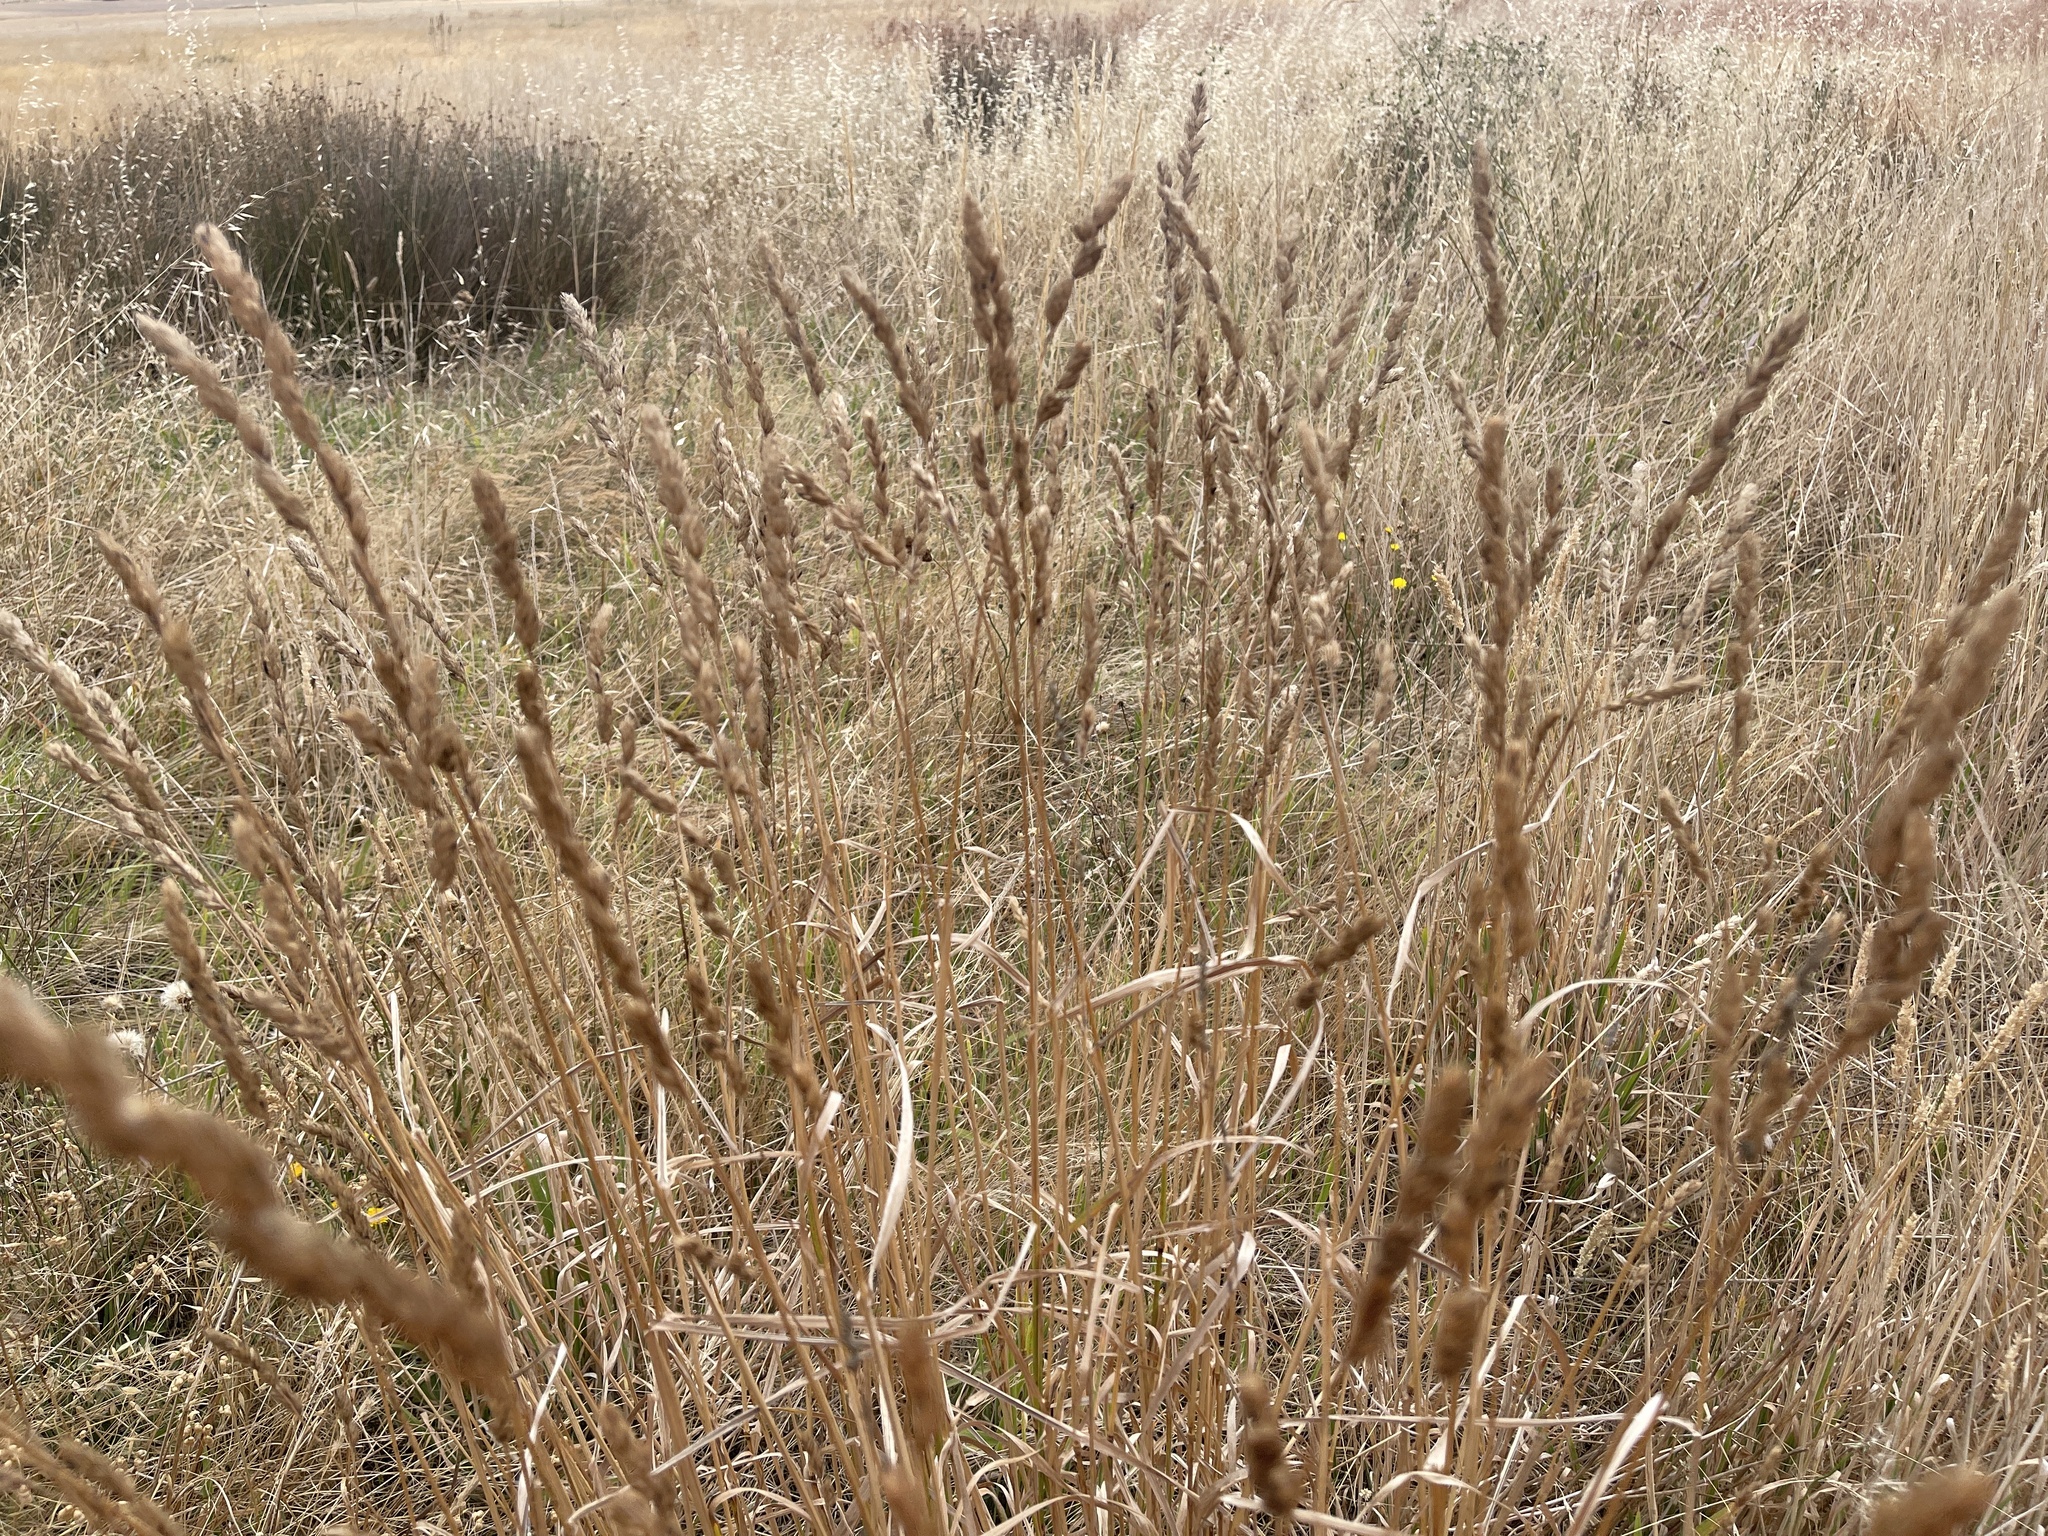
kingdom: Plantae
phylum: Tracheophyta
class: Liliopsida
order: Poales
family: Poaceae
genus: Dactylis
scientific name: Dactylis glomerata
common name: Orchardgrass
